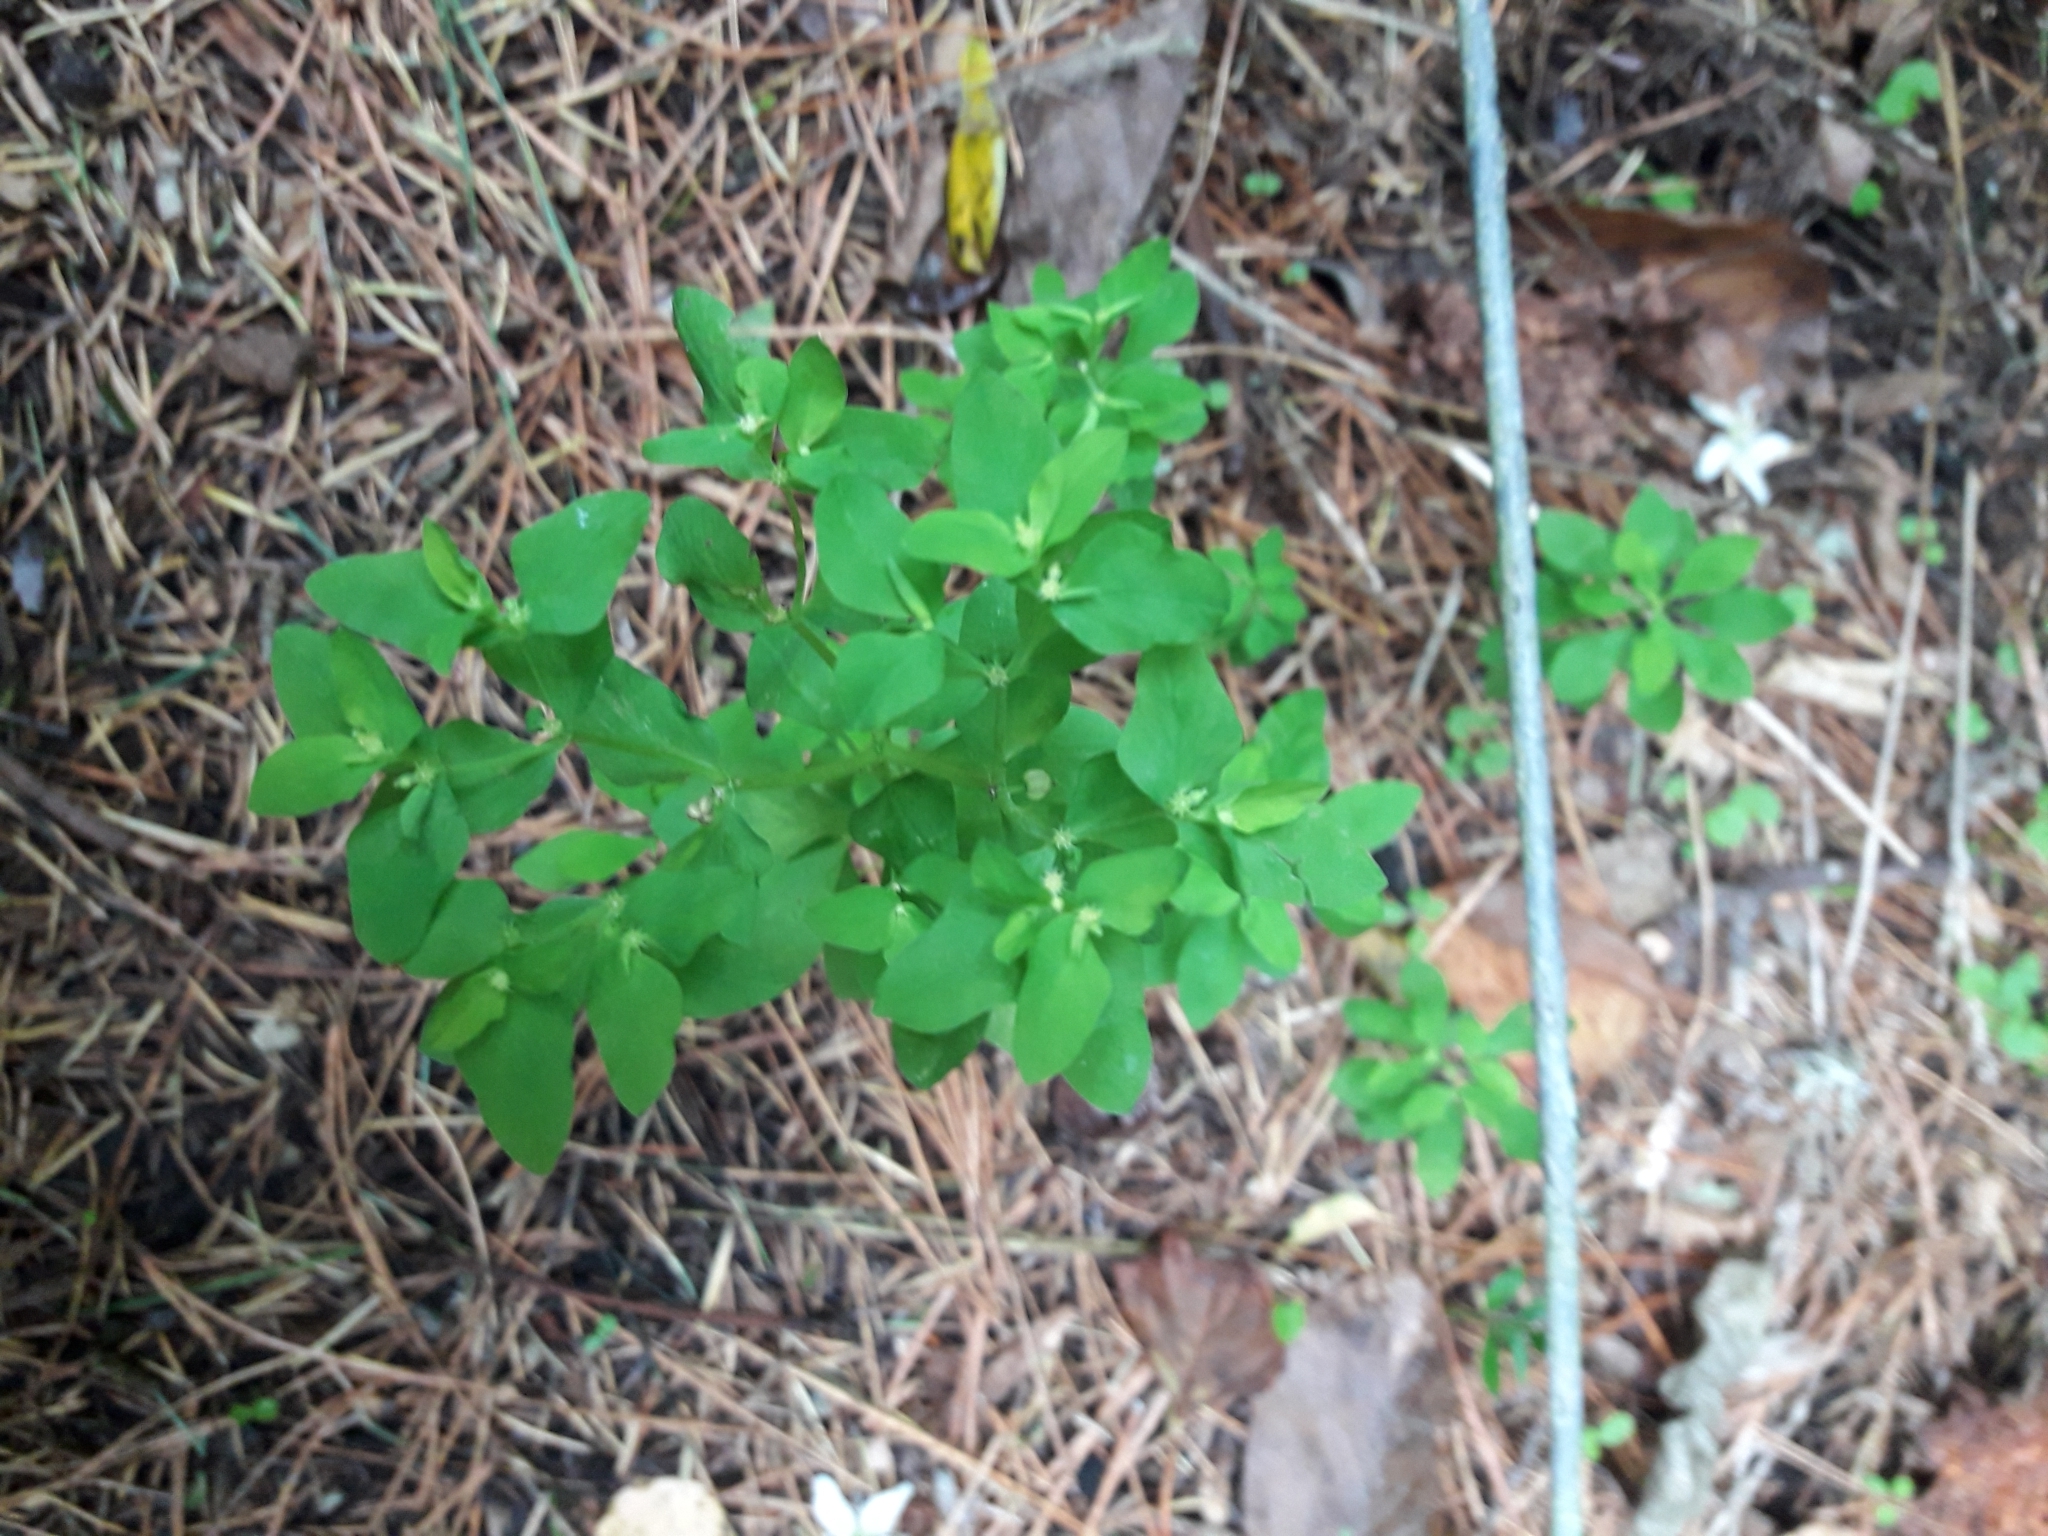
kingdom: Plantae
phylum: Tracheophyta
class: Magnoliopsida
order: Malpighiales
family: Euphorbiaceae
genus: Euphorbia
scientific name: Euphorbia peplus
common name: Petty spurge
